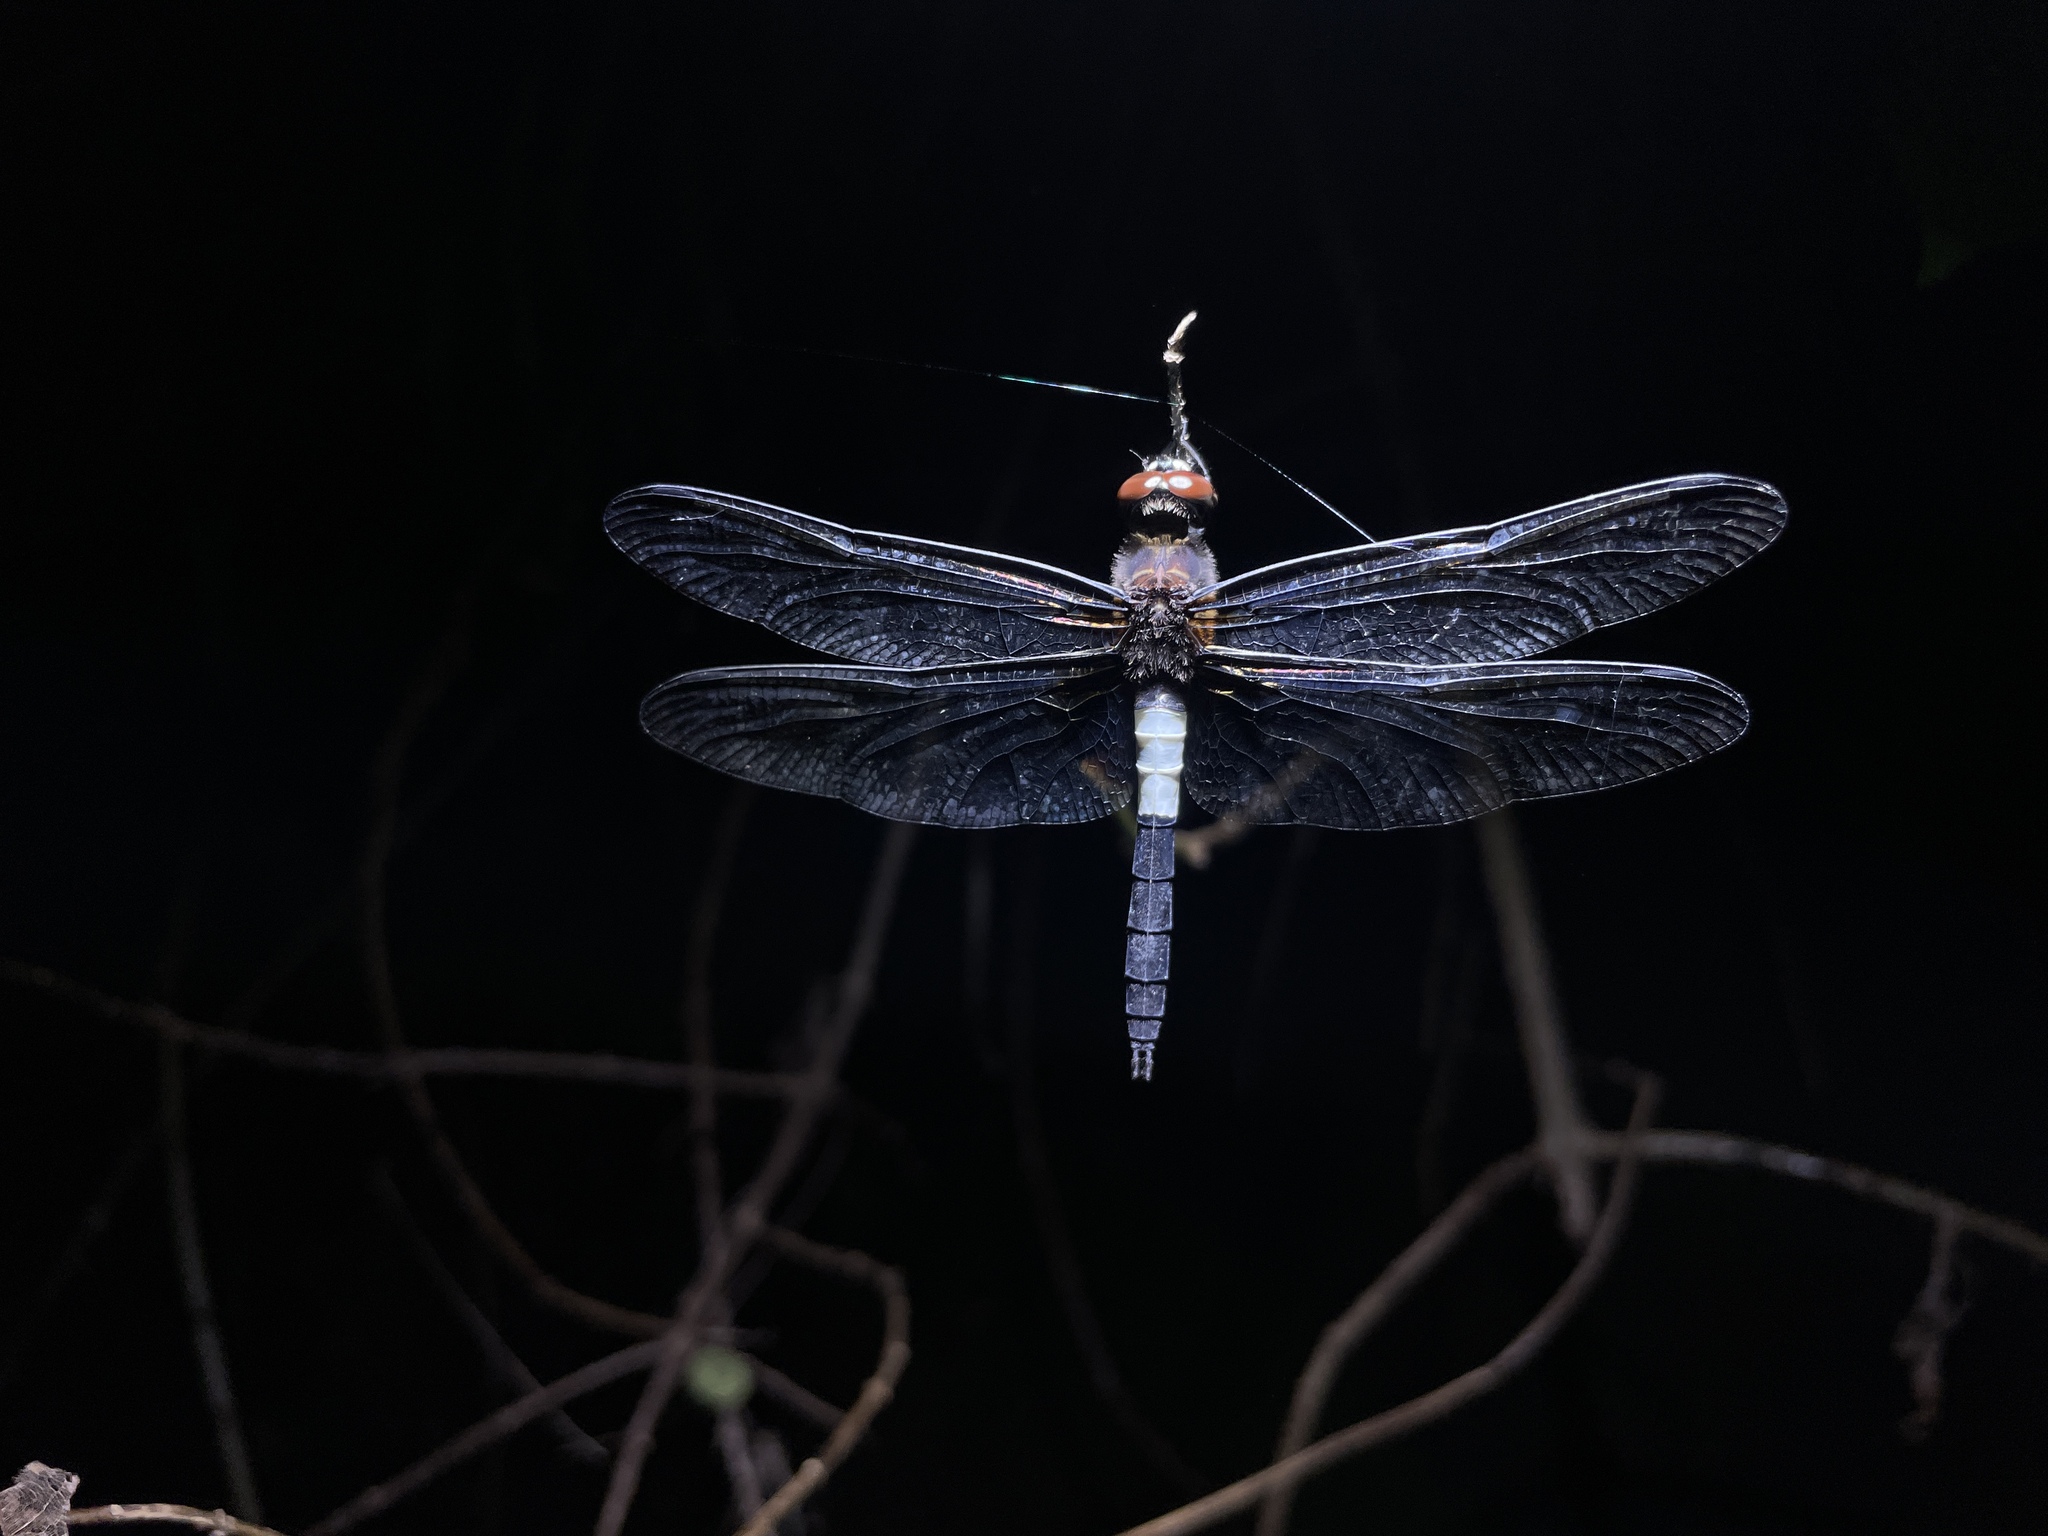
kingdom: Animalia
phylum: Arthropoda
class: Insecta
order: Odonata
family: Libellulidae
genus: Pseudothemis
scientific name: Pseudothemis zonata
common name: Pied skimmer
